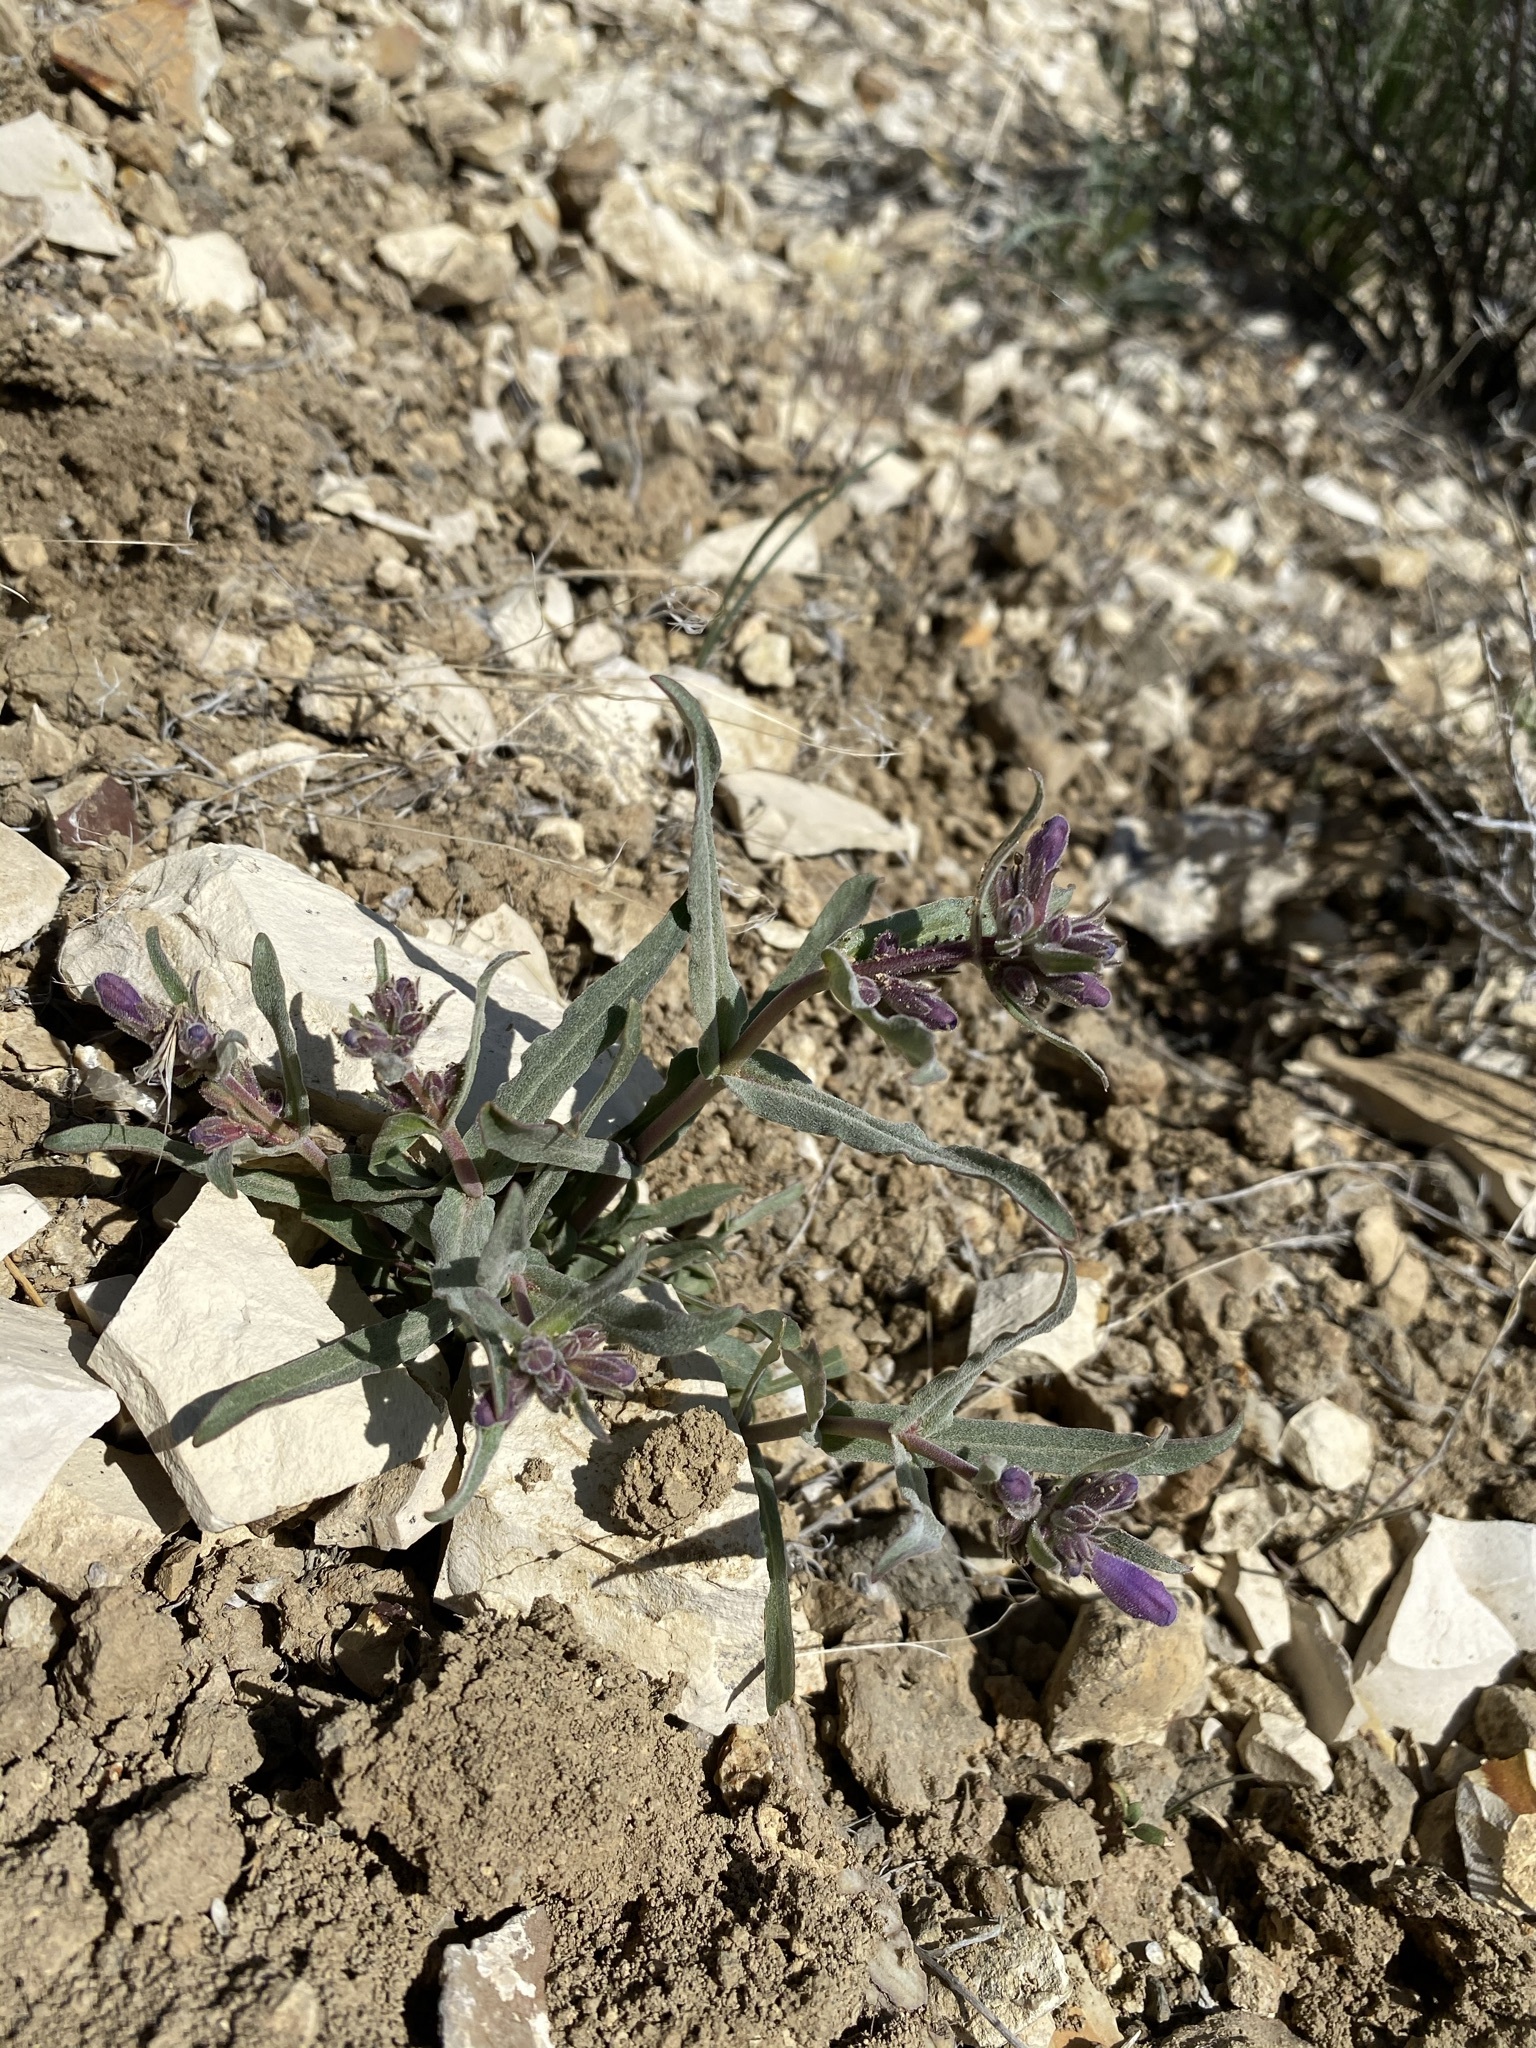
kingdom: Plantae
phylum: Tracheophyta
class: Magnoliopsida
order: Lamiales
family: Plantaginaceae
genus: Penstemon
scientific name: Penstemon miser
